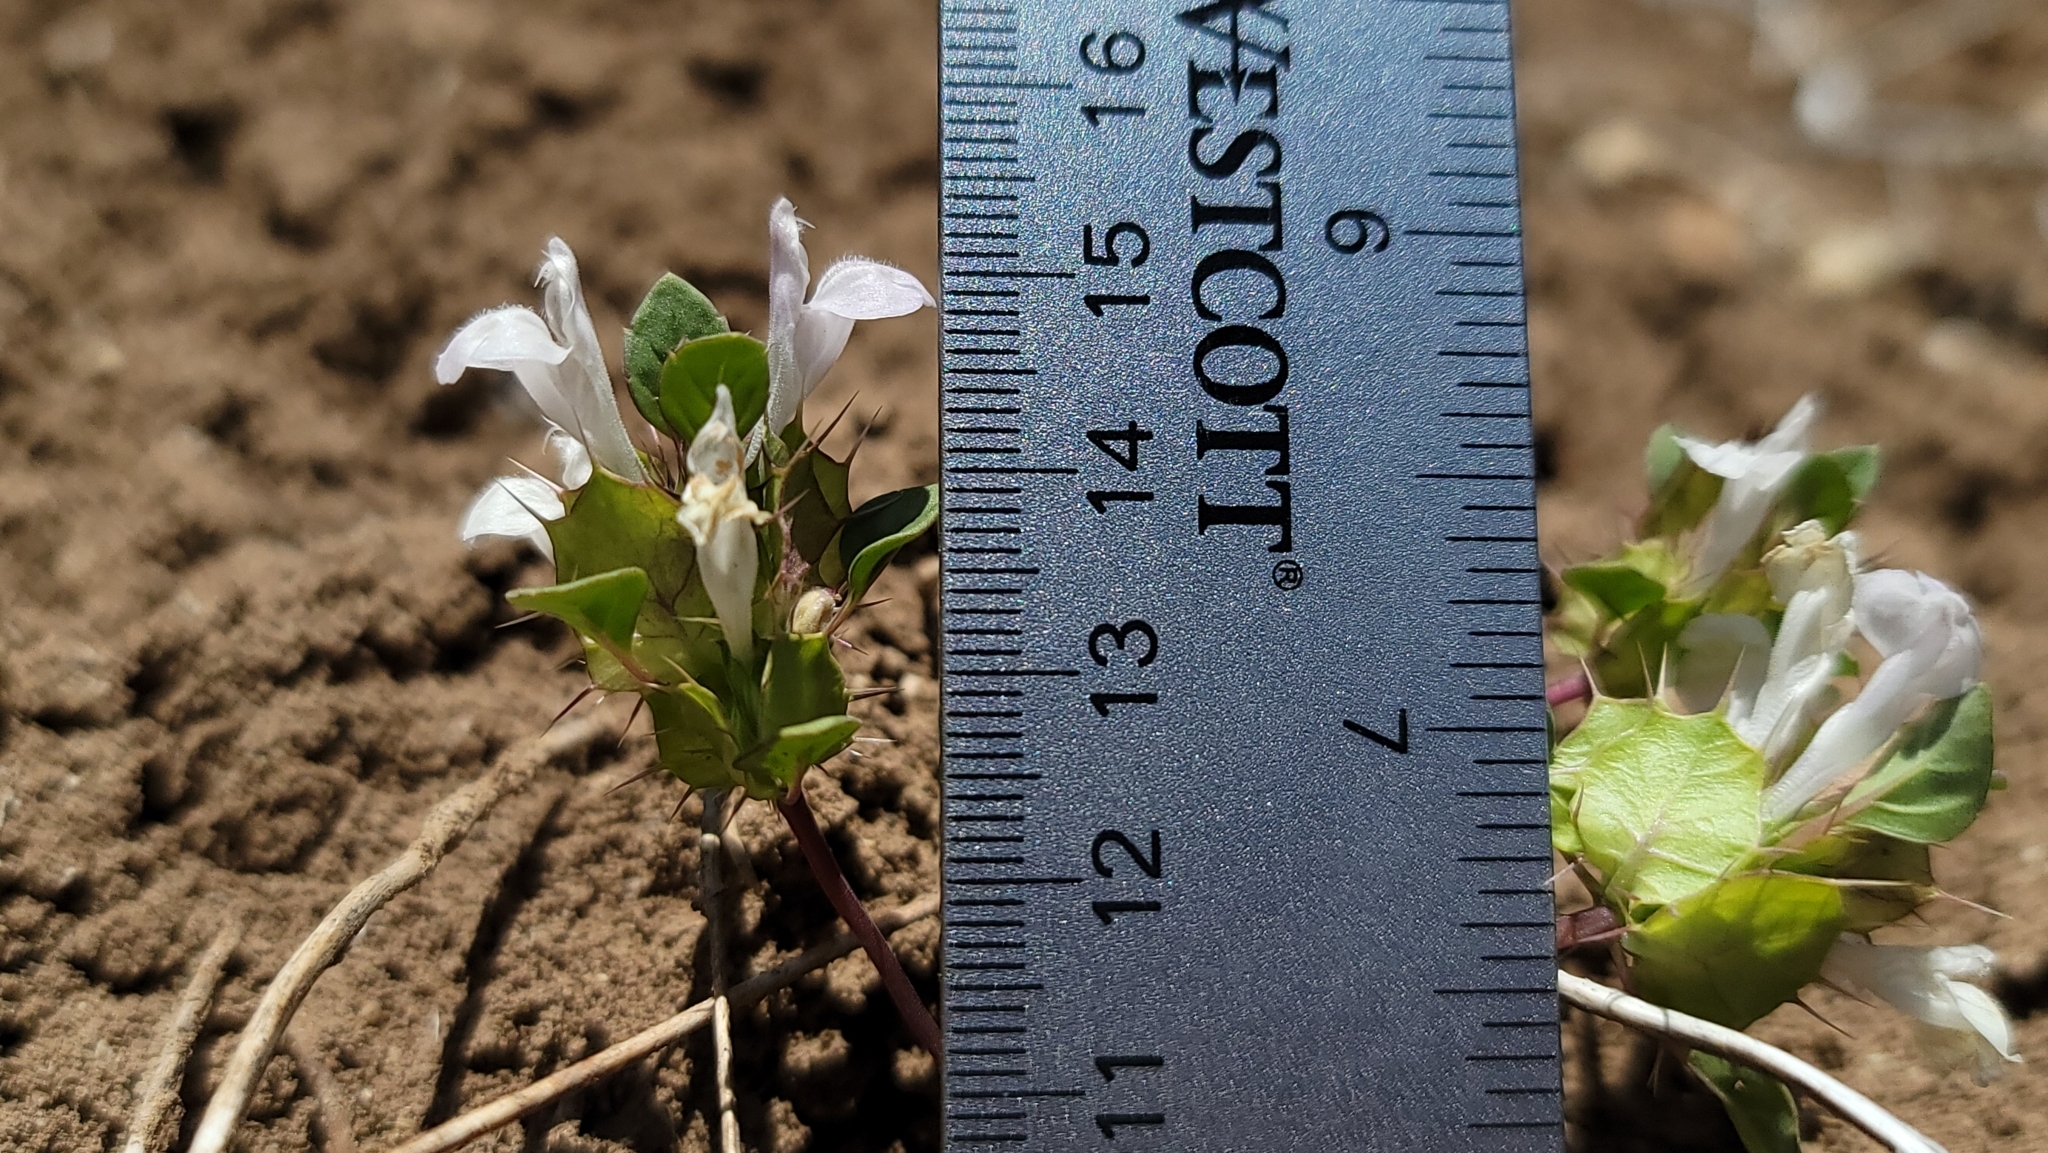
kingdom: Plantae
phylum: Tracheophyta
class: Magnoliopsida
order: Lamiales
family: Lamiaceae
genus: Acanthomintha
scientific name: Acanthomintha obovata
